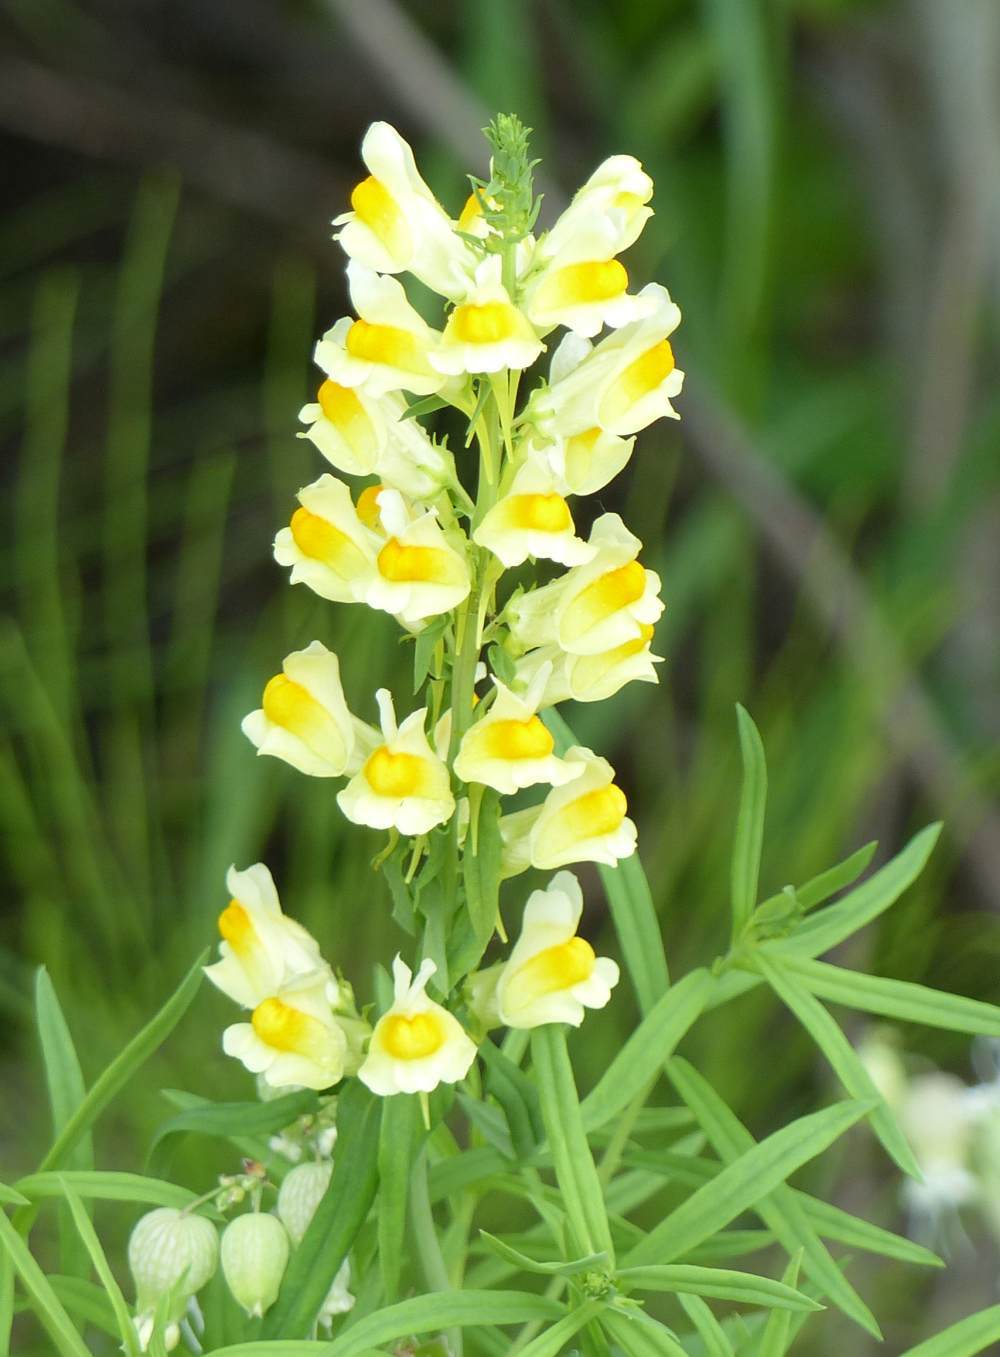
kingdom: Plantae
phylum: Tracheophyta
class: Magnoliopsida
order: Lamiales
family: Plantaginaceae
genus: Linaria
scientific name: Linaria vulgaris
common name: Butter and eggs
